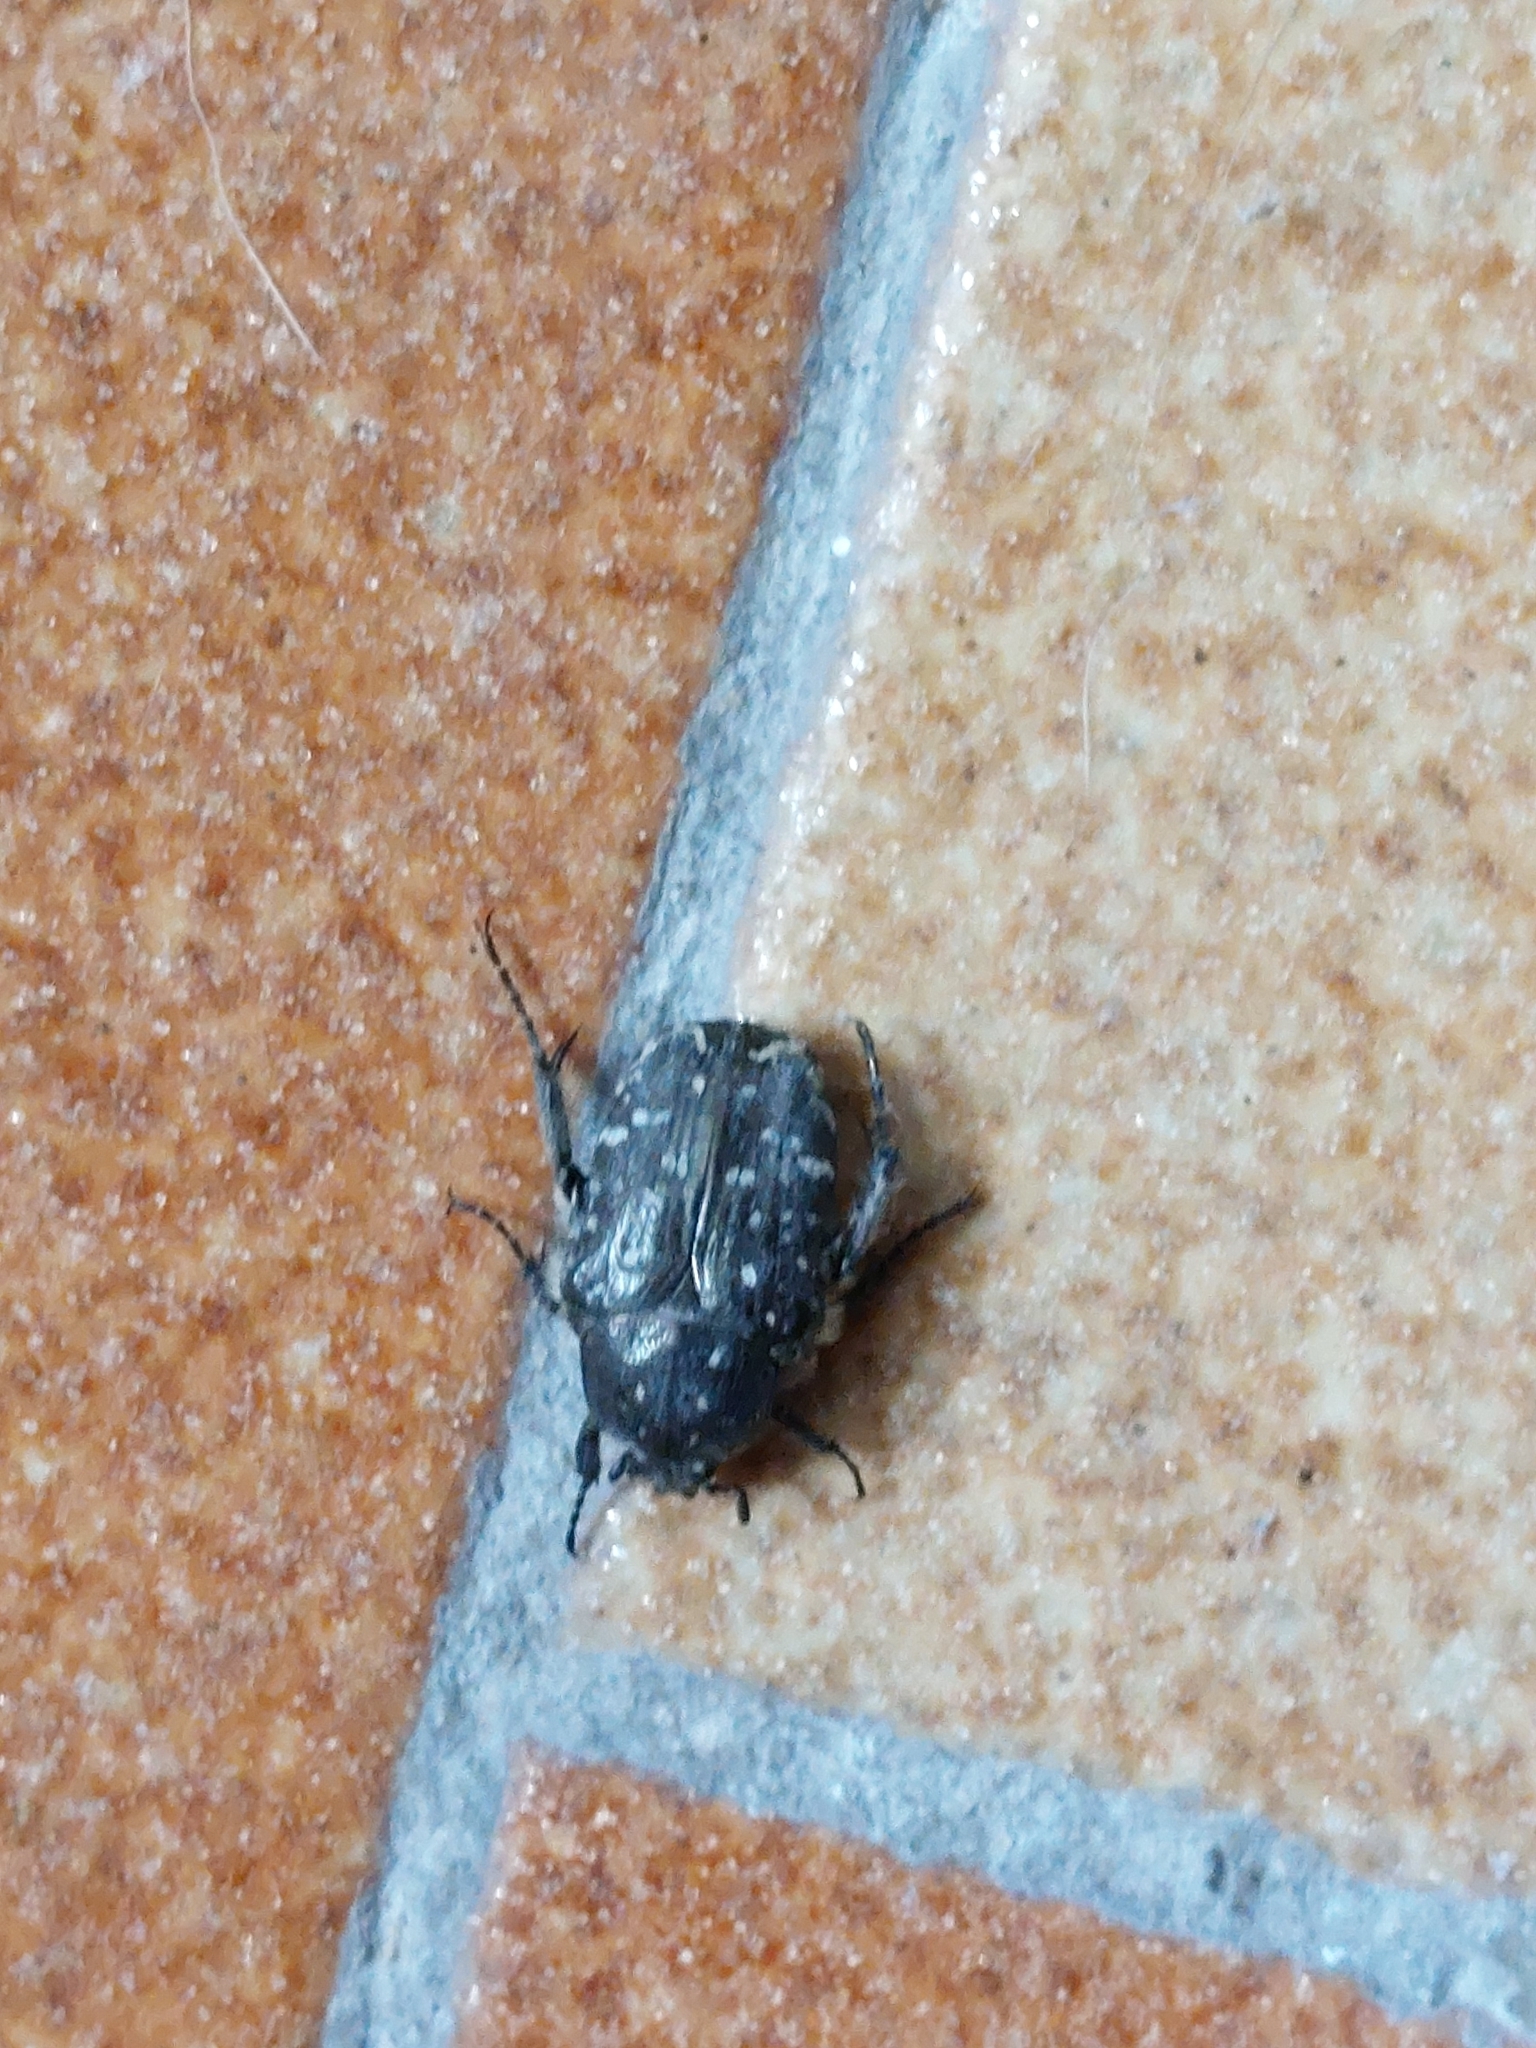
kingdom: Animalia
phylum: Arthropoda
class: Insecta
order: Coleoptera
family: Scarabaeidae
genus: Oxythyrea
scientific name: Oxythyrea funesta
